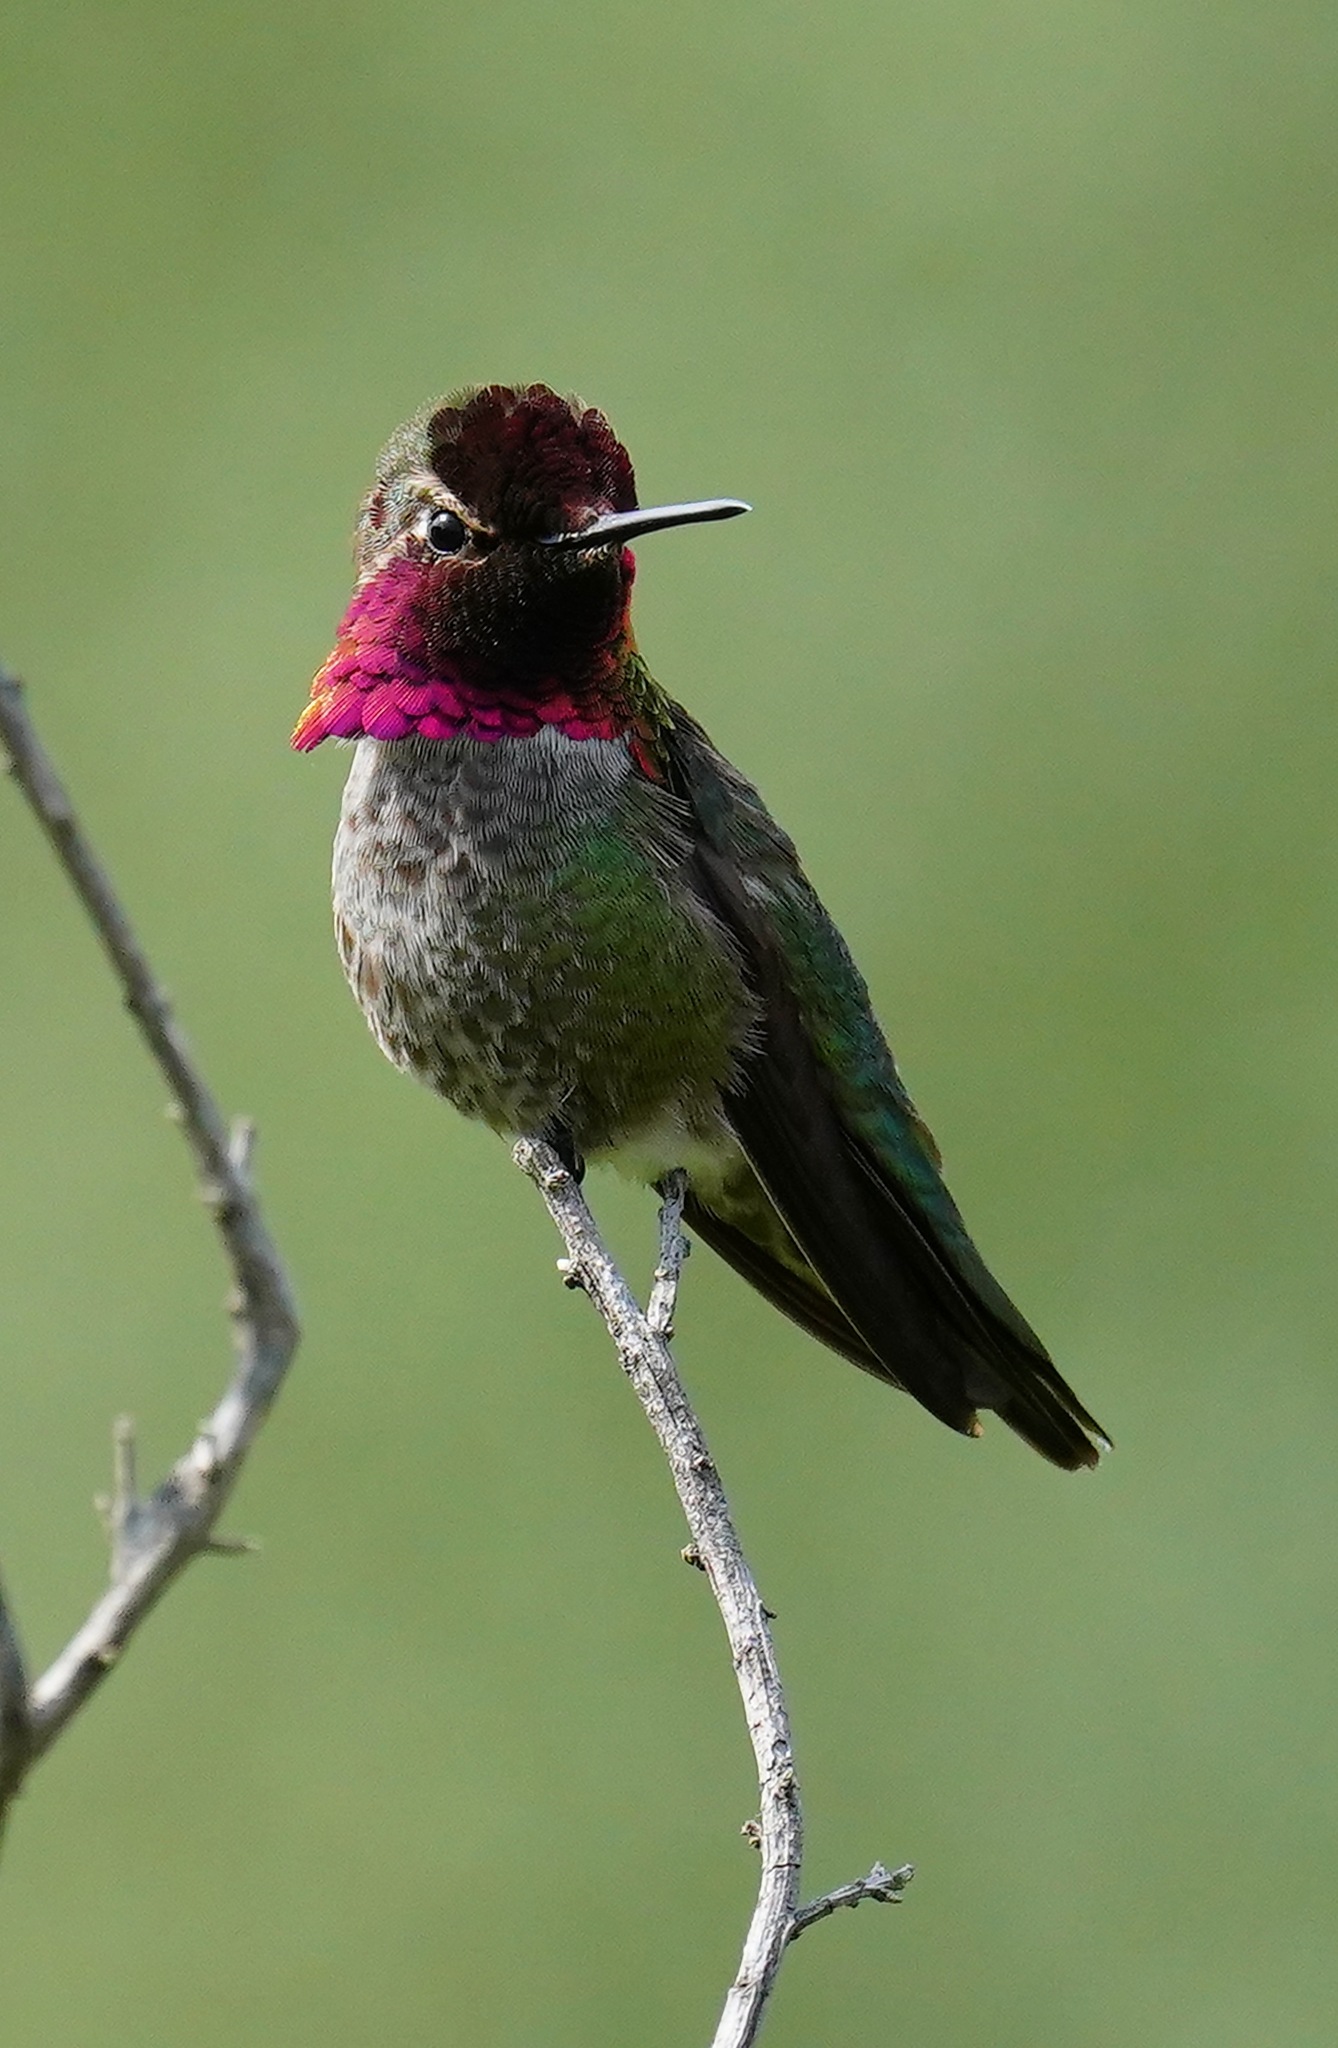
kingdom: Animalia
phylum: Chordata
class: Aves
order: Apodiformes
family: Trochilidae
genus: Calypte
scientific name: Calypte anna
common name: Anna's hummingbird
